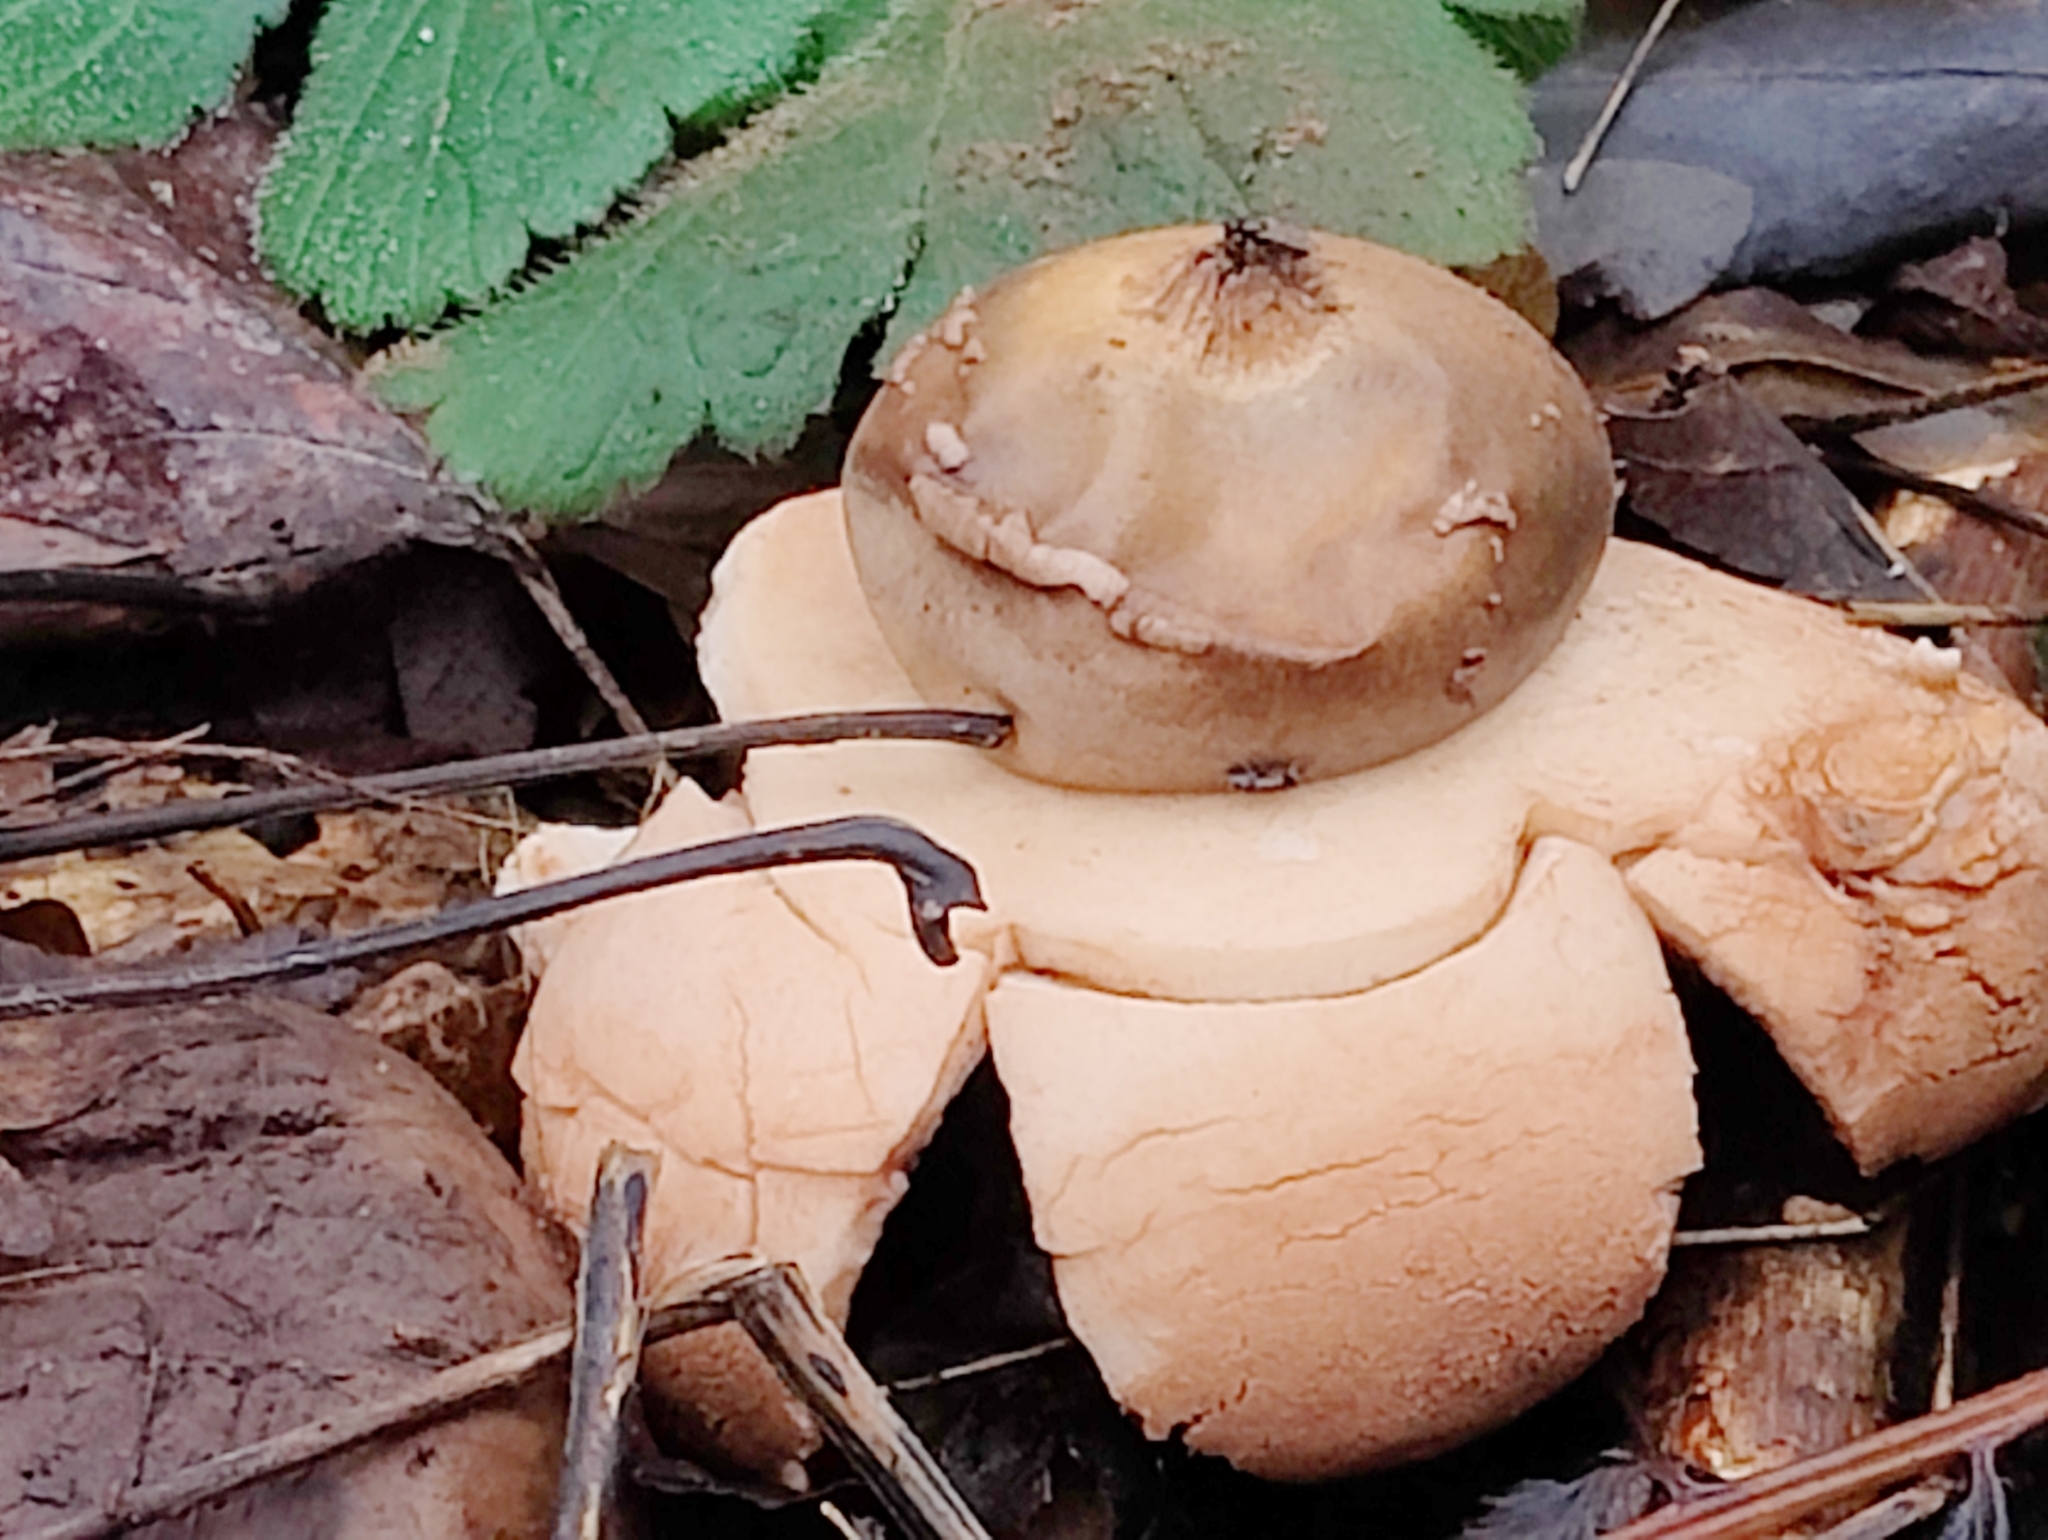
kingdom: Fungi
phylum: Basidiomycota
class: Agaricomycetes
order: Geastrales
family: Geastraceae
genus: Geastrum
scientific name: Geastrum michelianum
